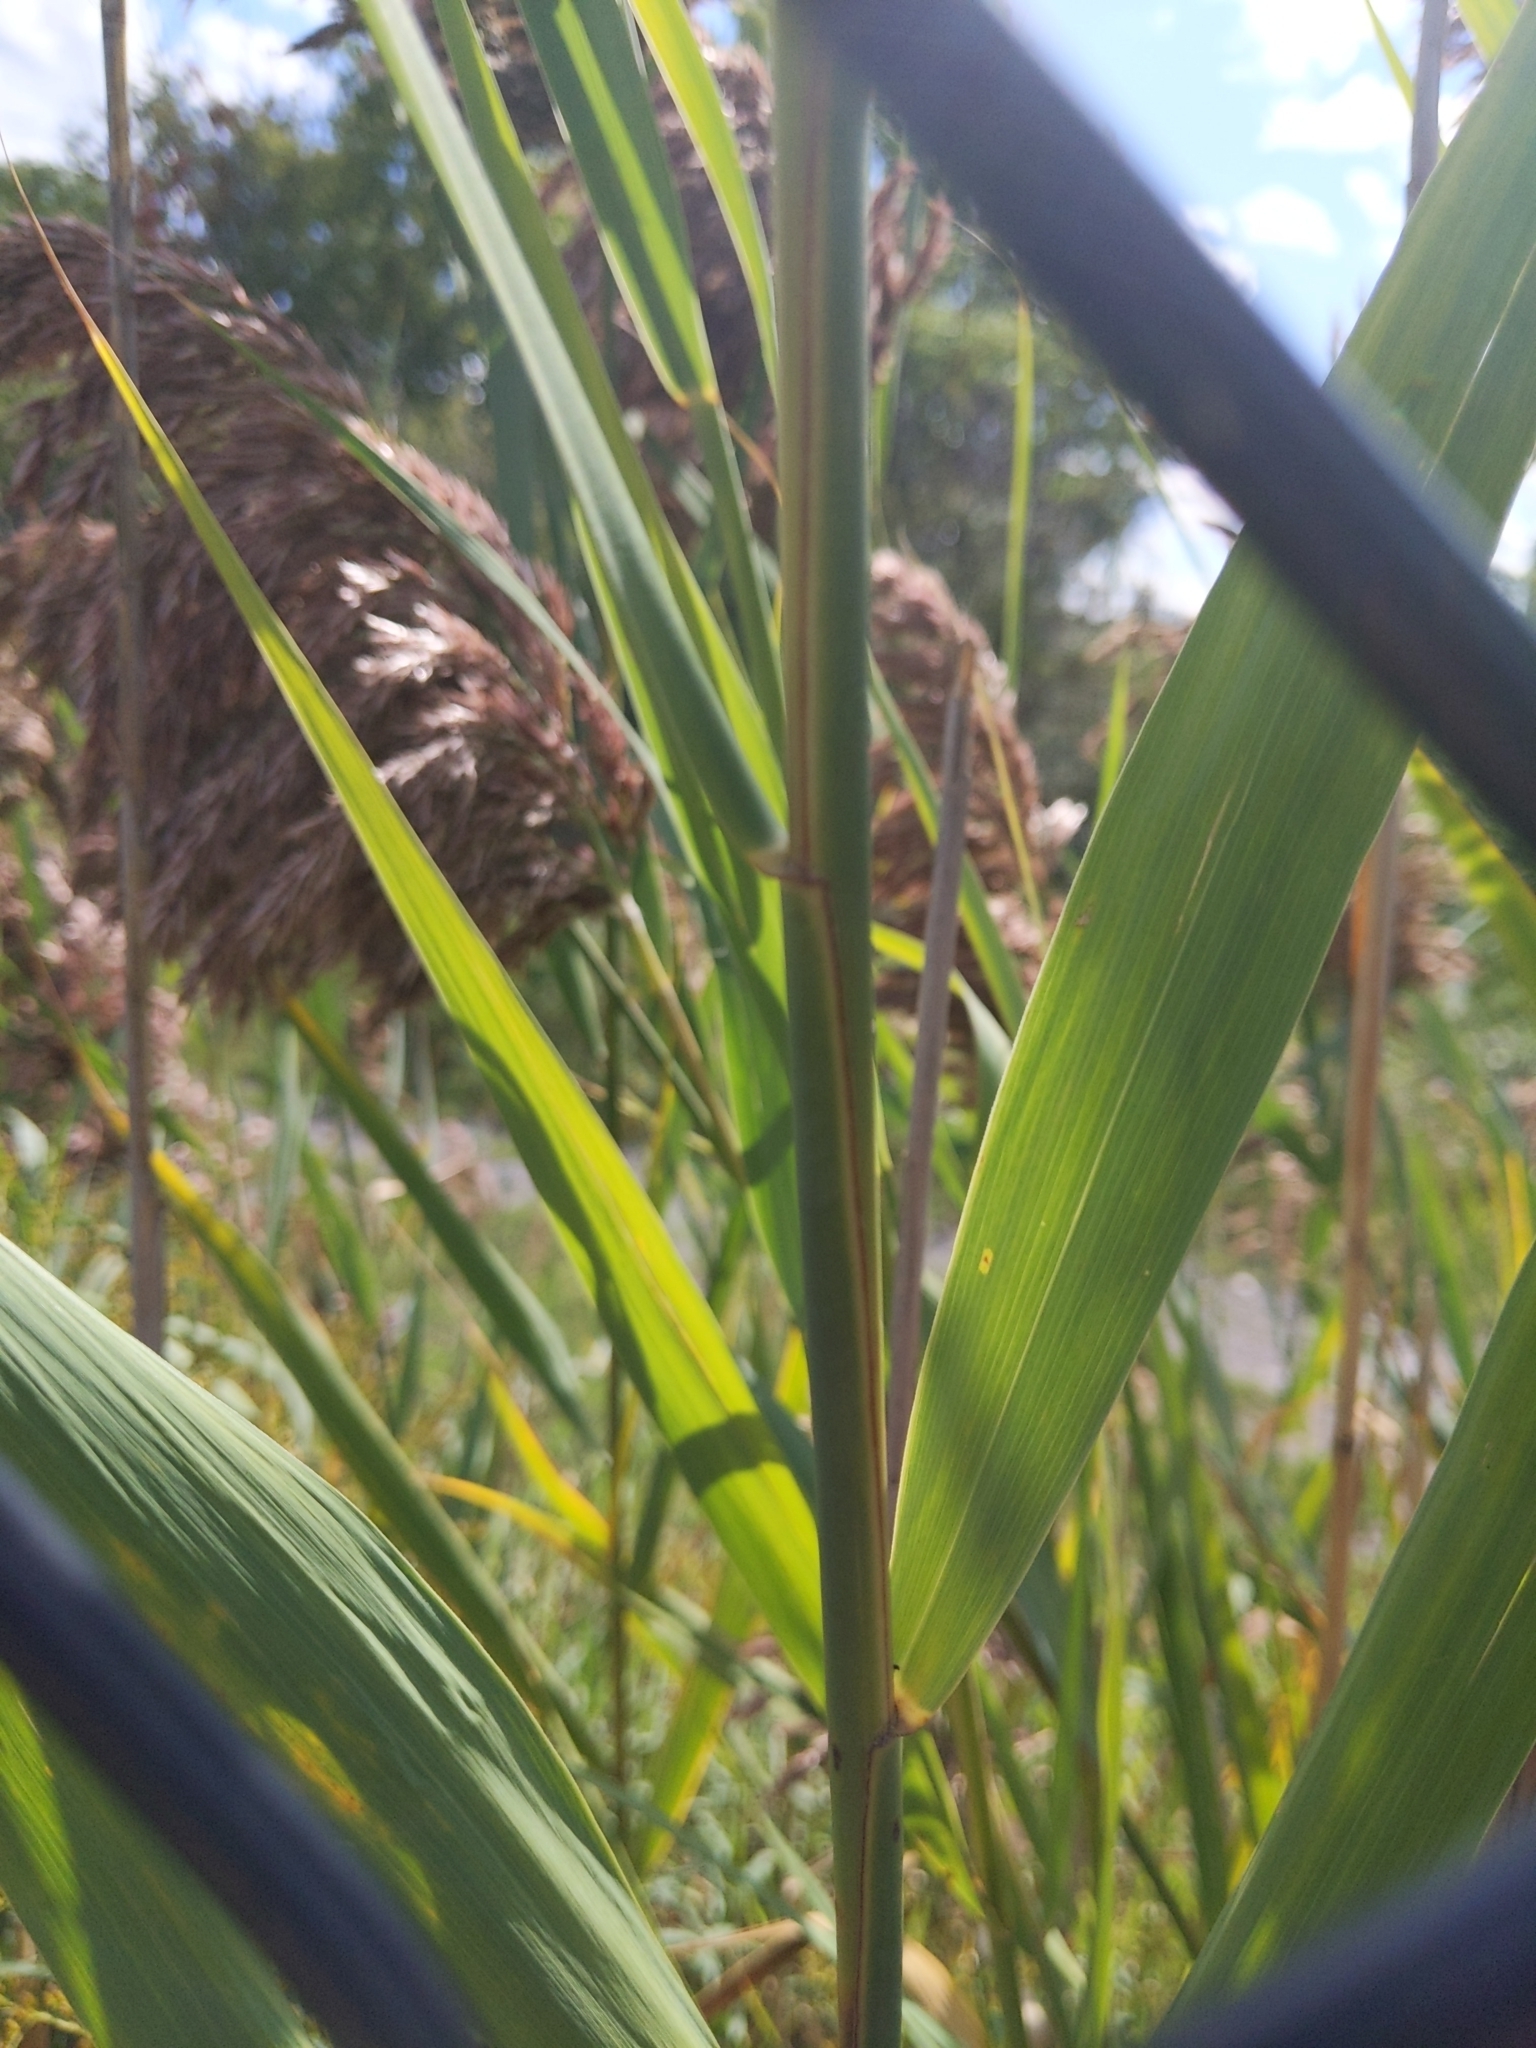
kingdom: Plantae
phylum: Tracheophyta
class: Liliopsida
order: Poales
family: Poaceae
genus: Phragmites
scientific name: Phragmites australis
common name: Common reed
